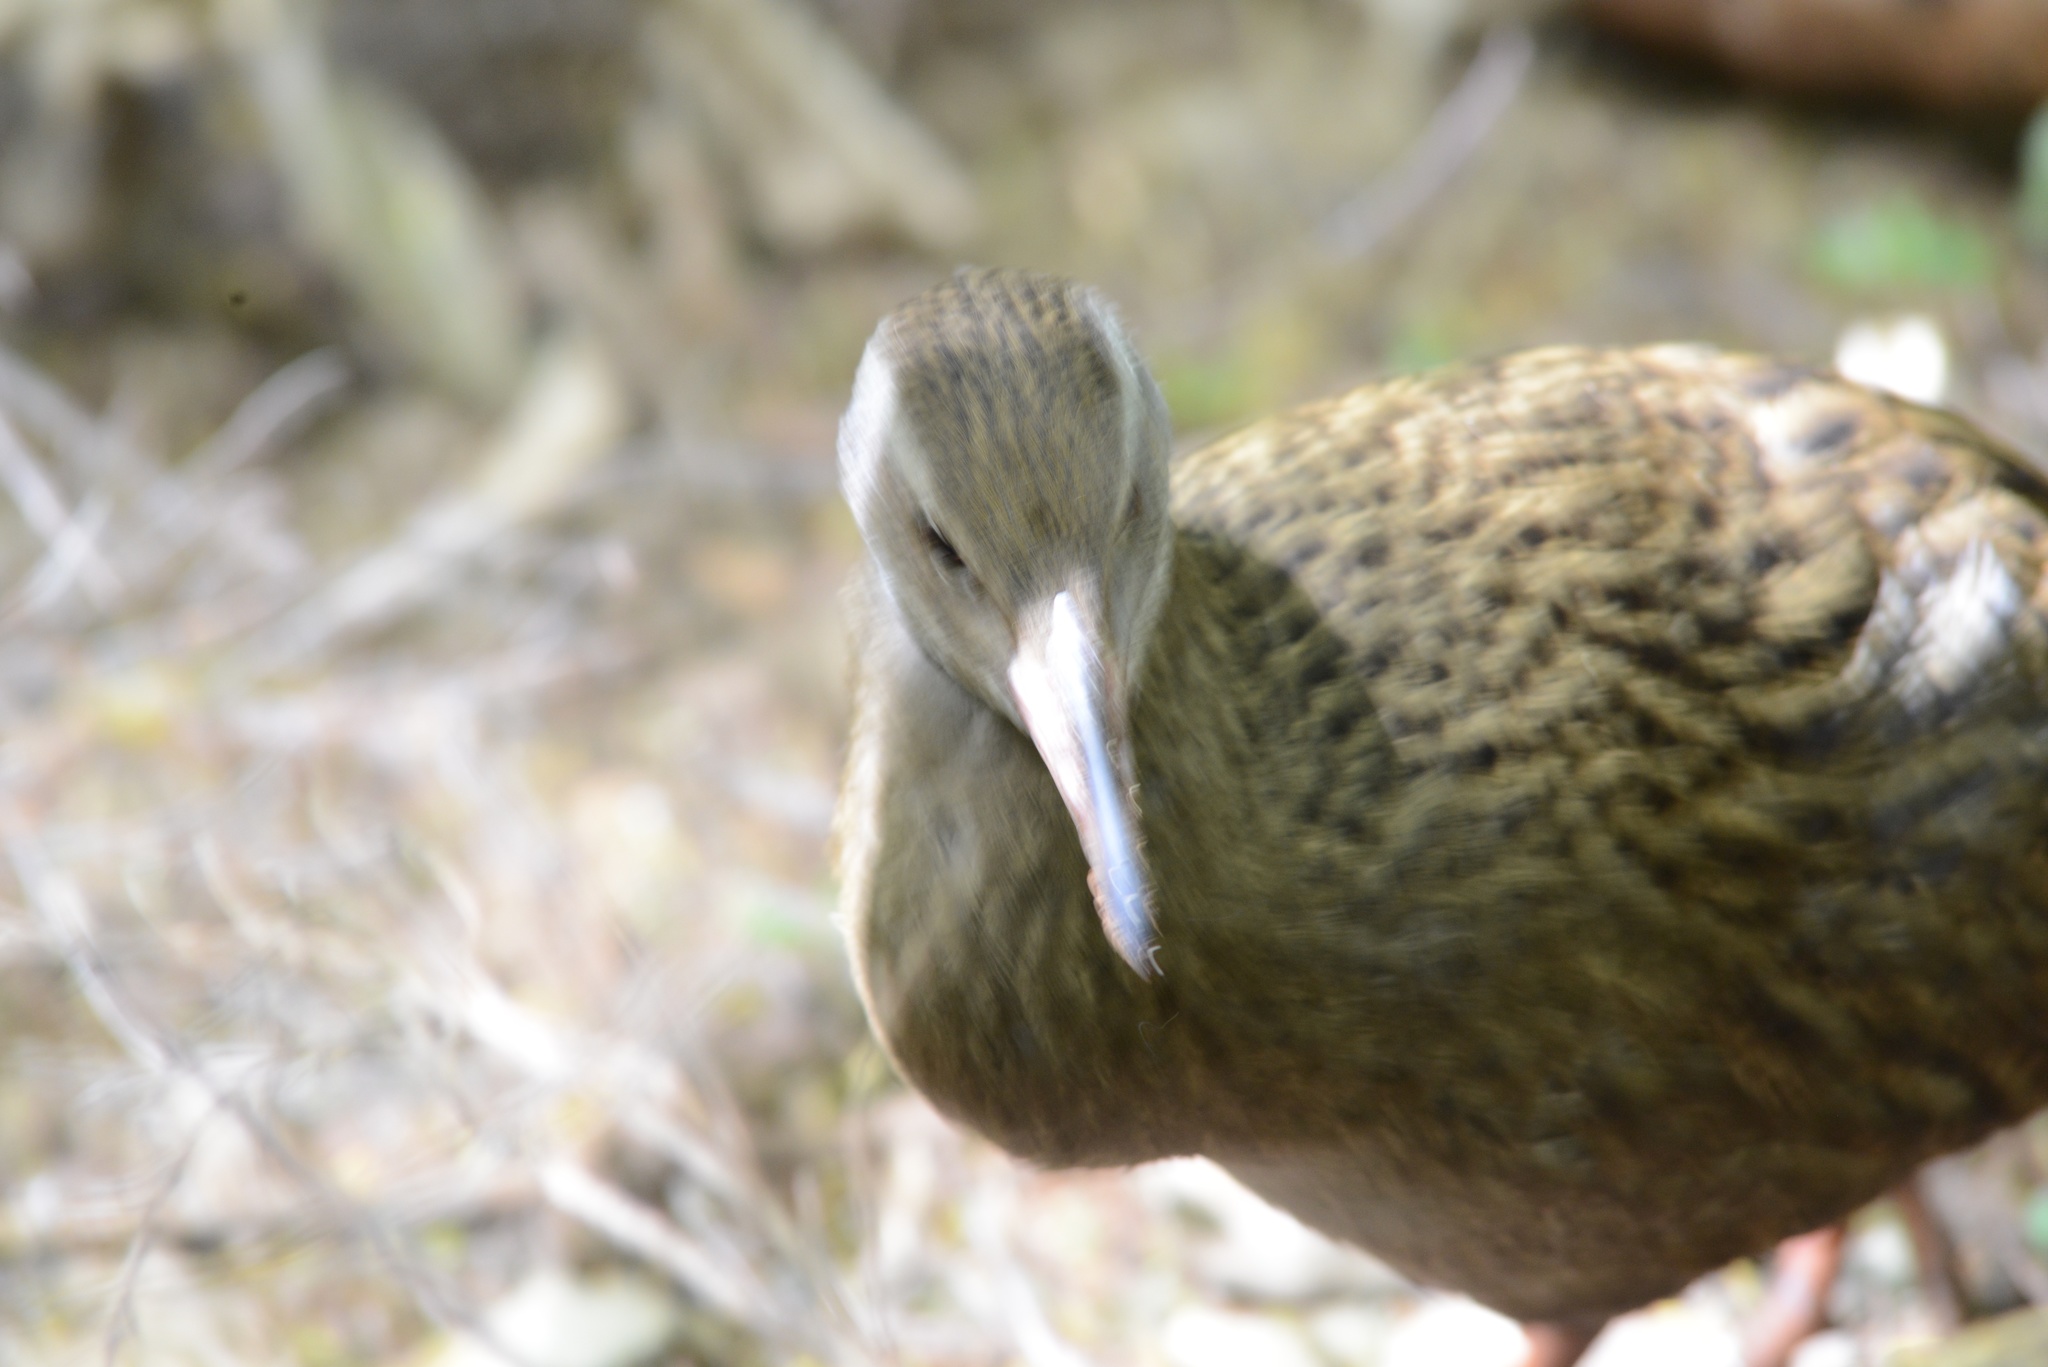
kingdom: Animalia
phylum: Chordata
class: Aves
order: Gruiformes
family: Rallidae
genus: Gallirallus
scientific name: Gallirallus australis
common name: Weka
